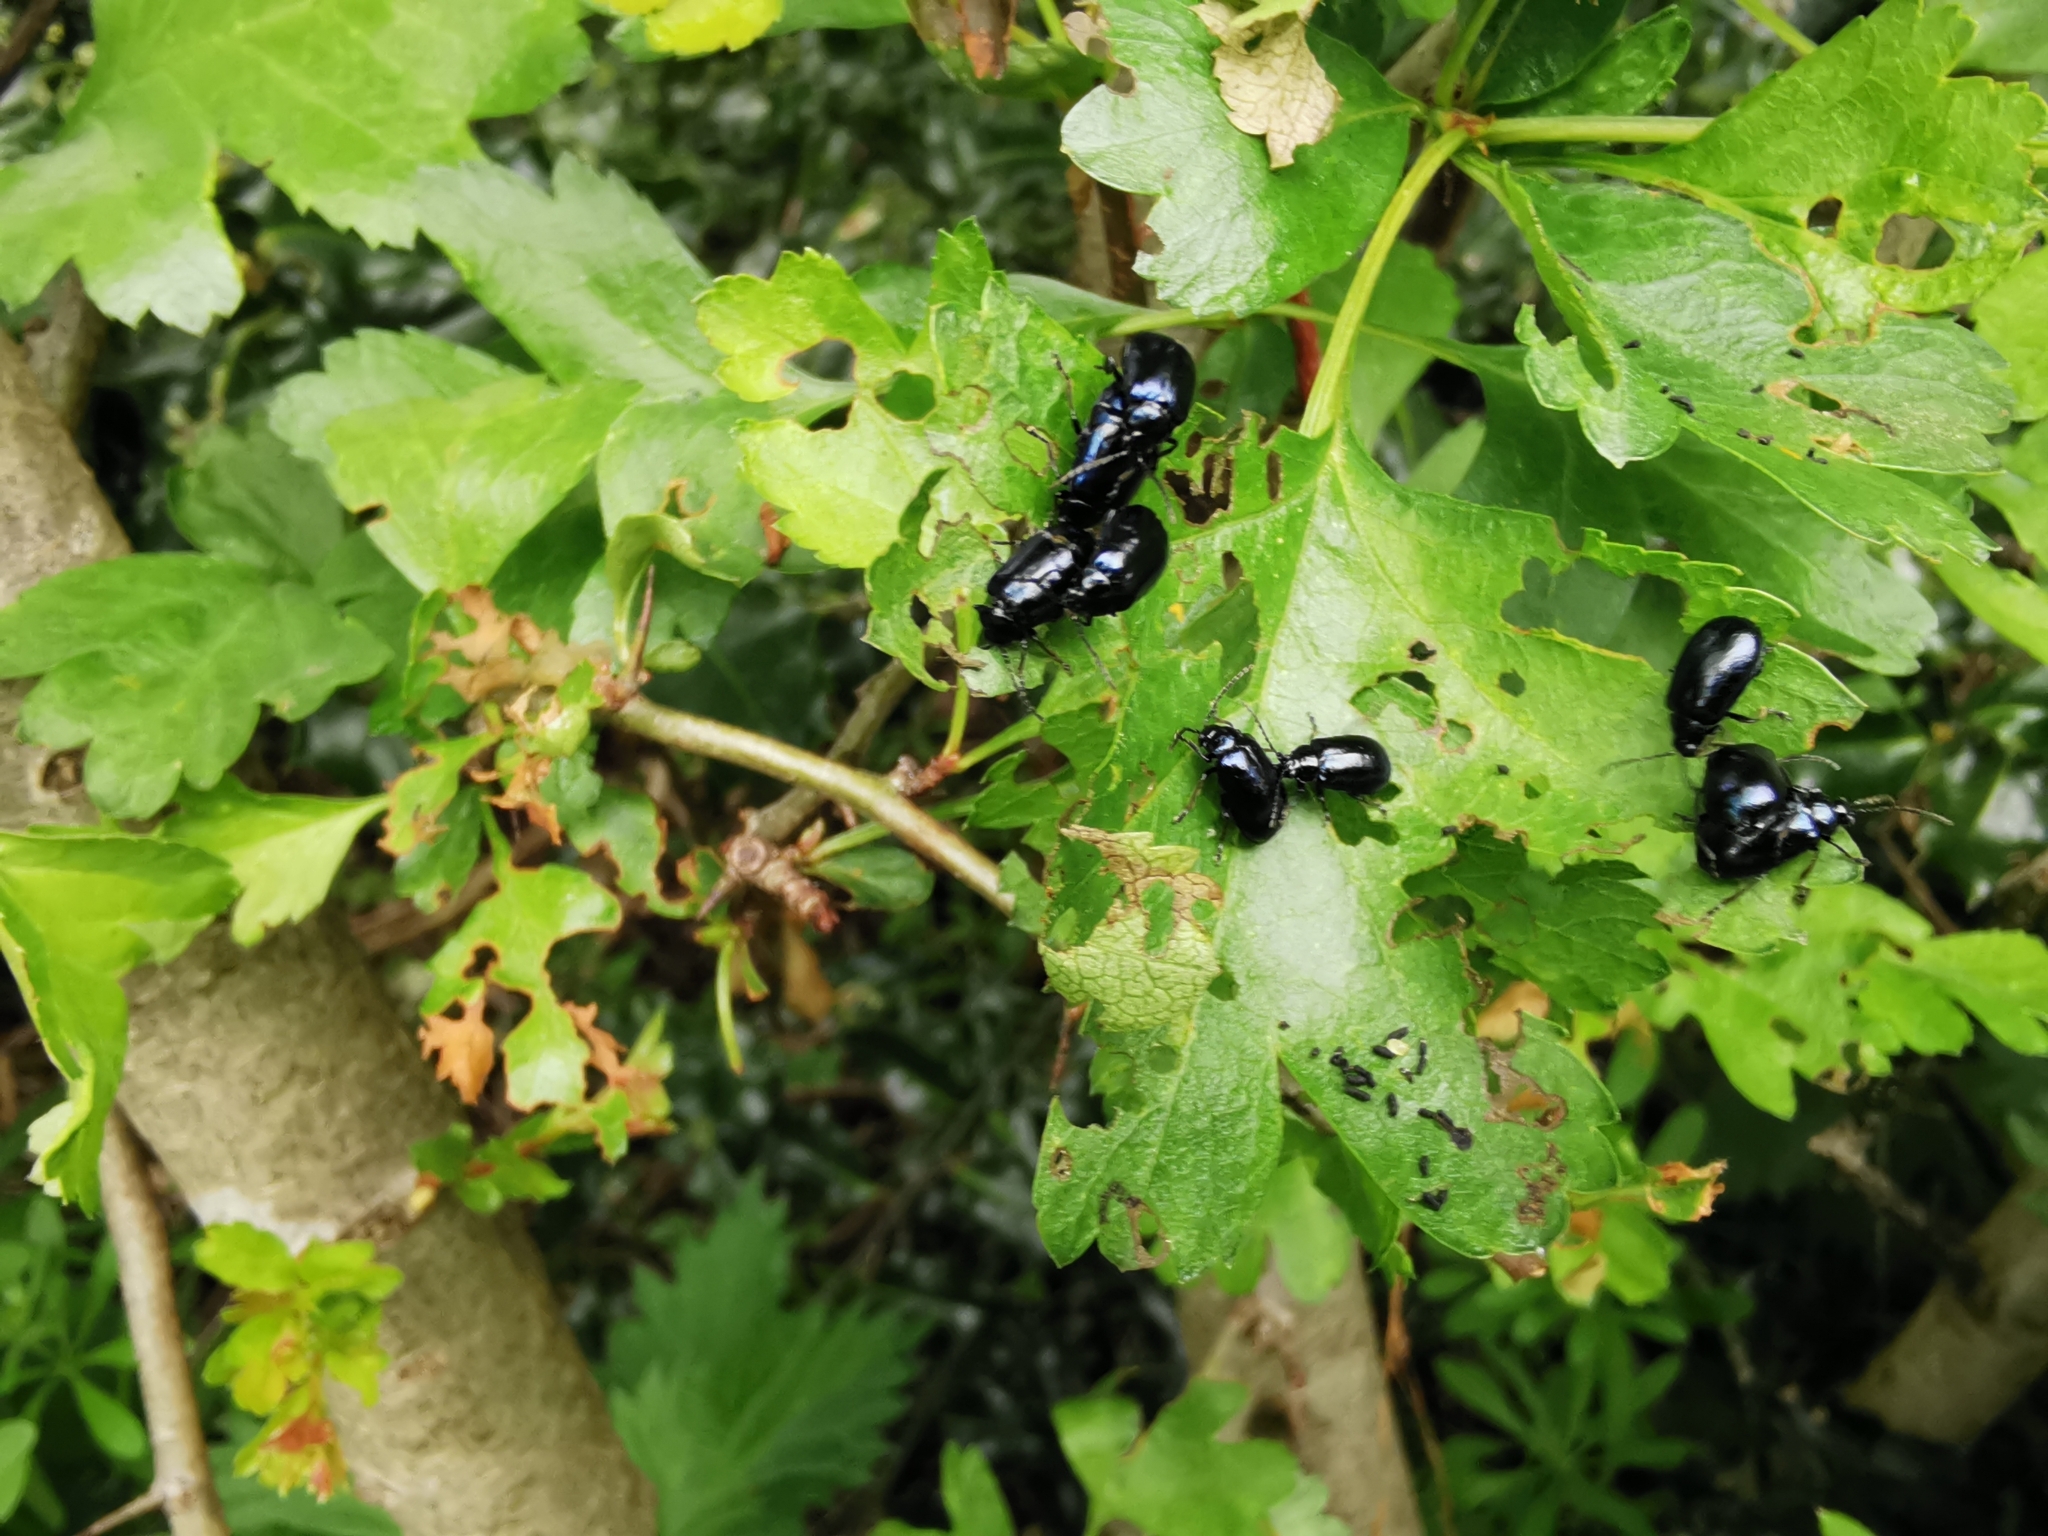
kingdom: Animalia
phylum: Arthropoda
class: Insecta
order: Coleoptera
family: Chrysomelidae
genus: Agelastica
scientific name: Agelastica alni
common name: Alder leaf beetle
